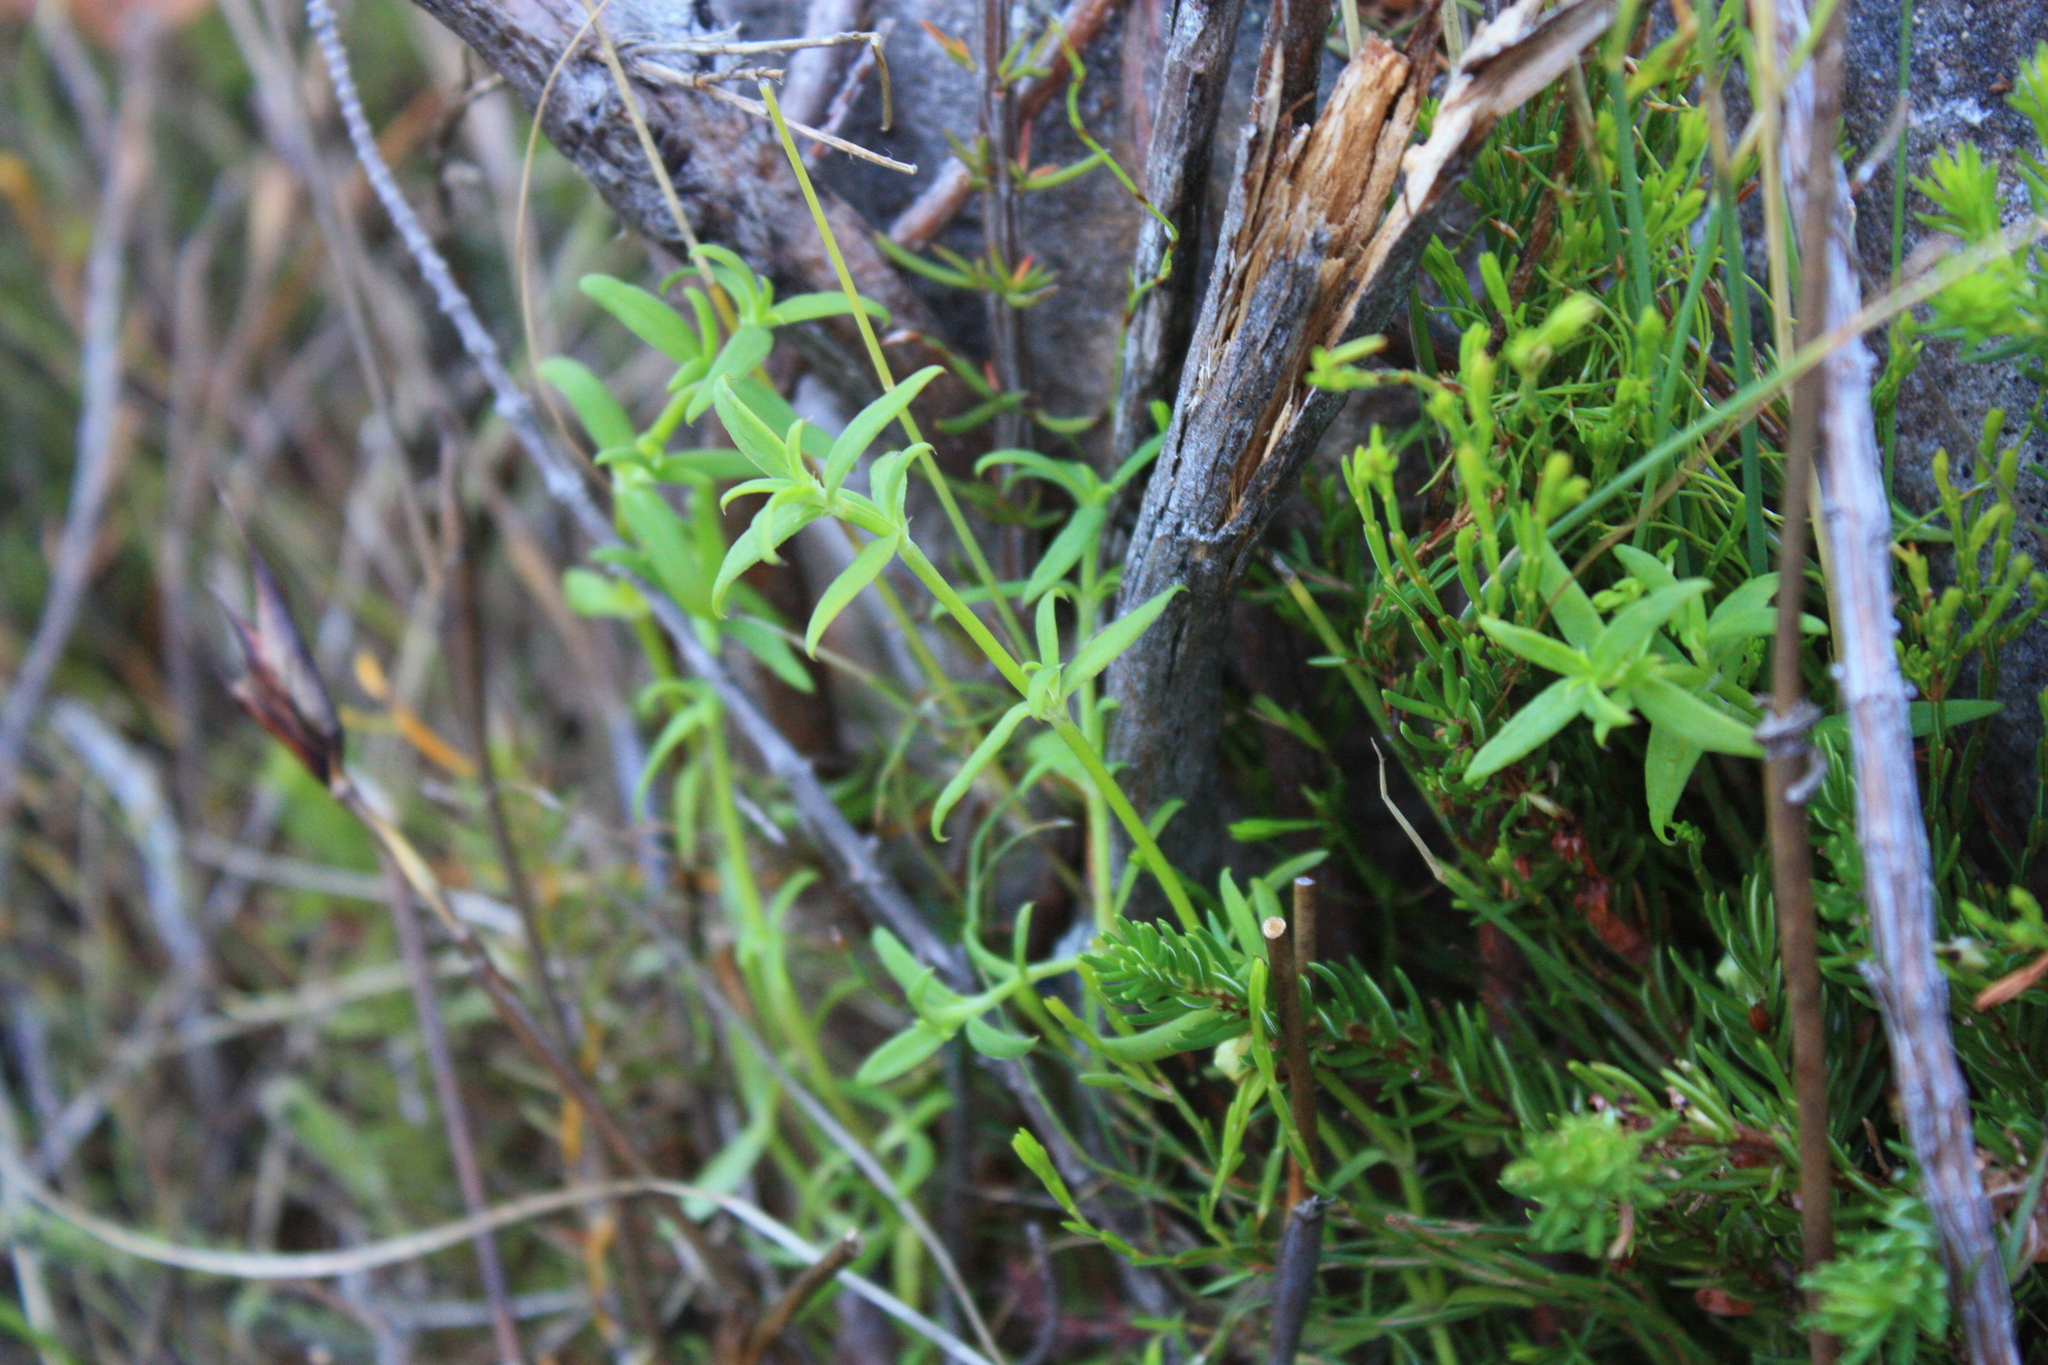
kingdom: Plantae
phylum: Tracheophyta
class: Magnoliopsida
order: Gentianales
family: Rubiaceae
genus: Carpacoce
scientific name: Carpacoce spermacocea
